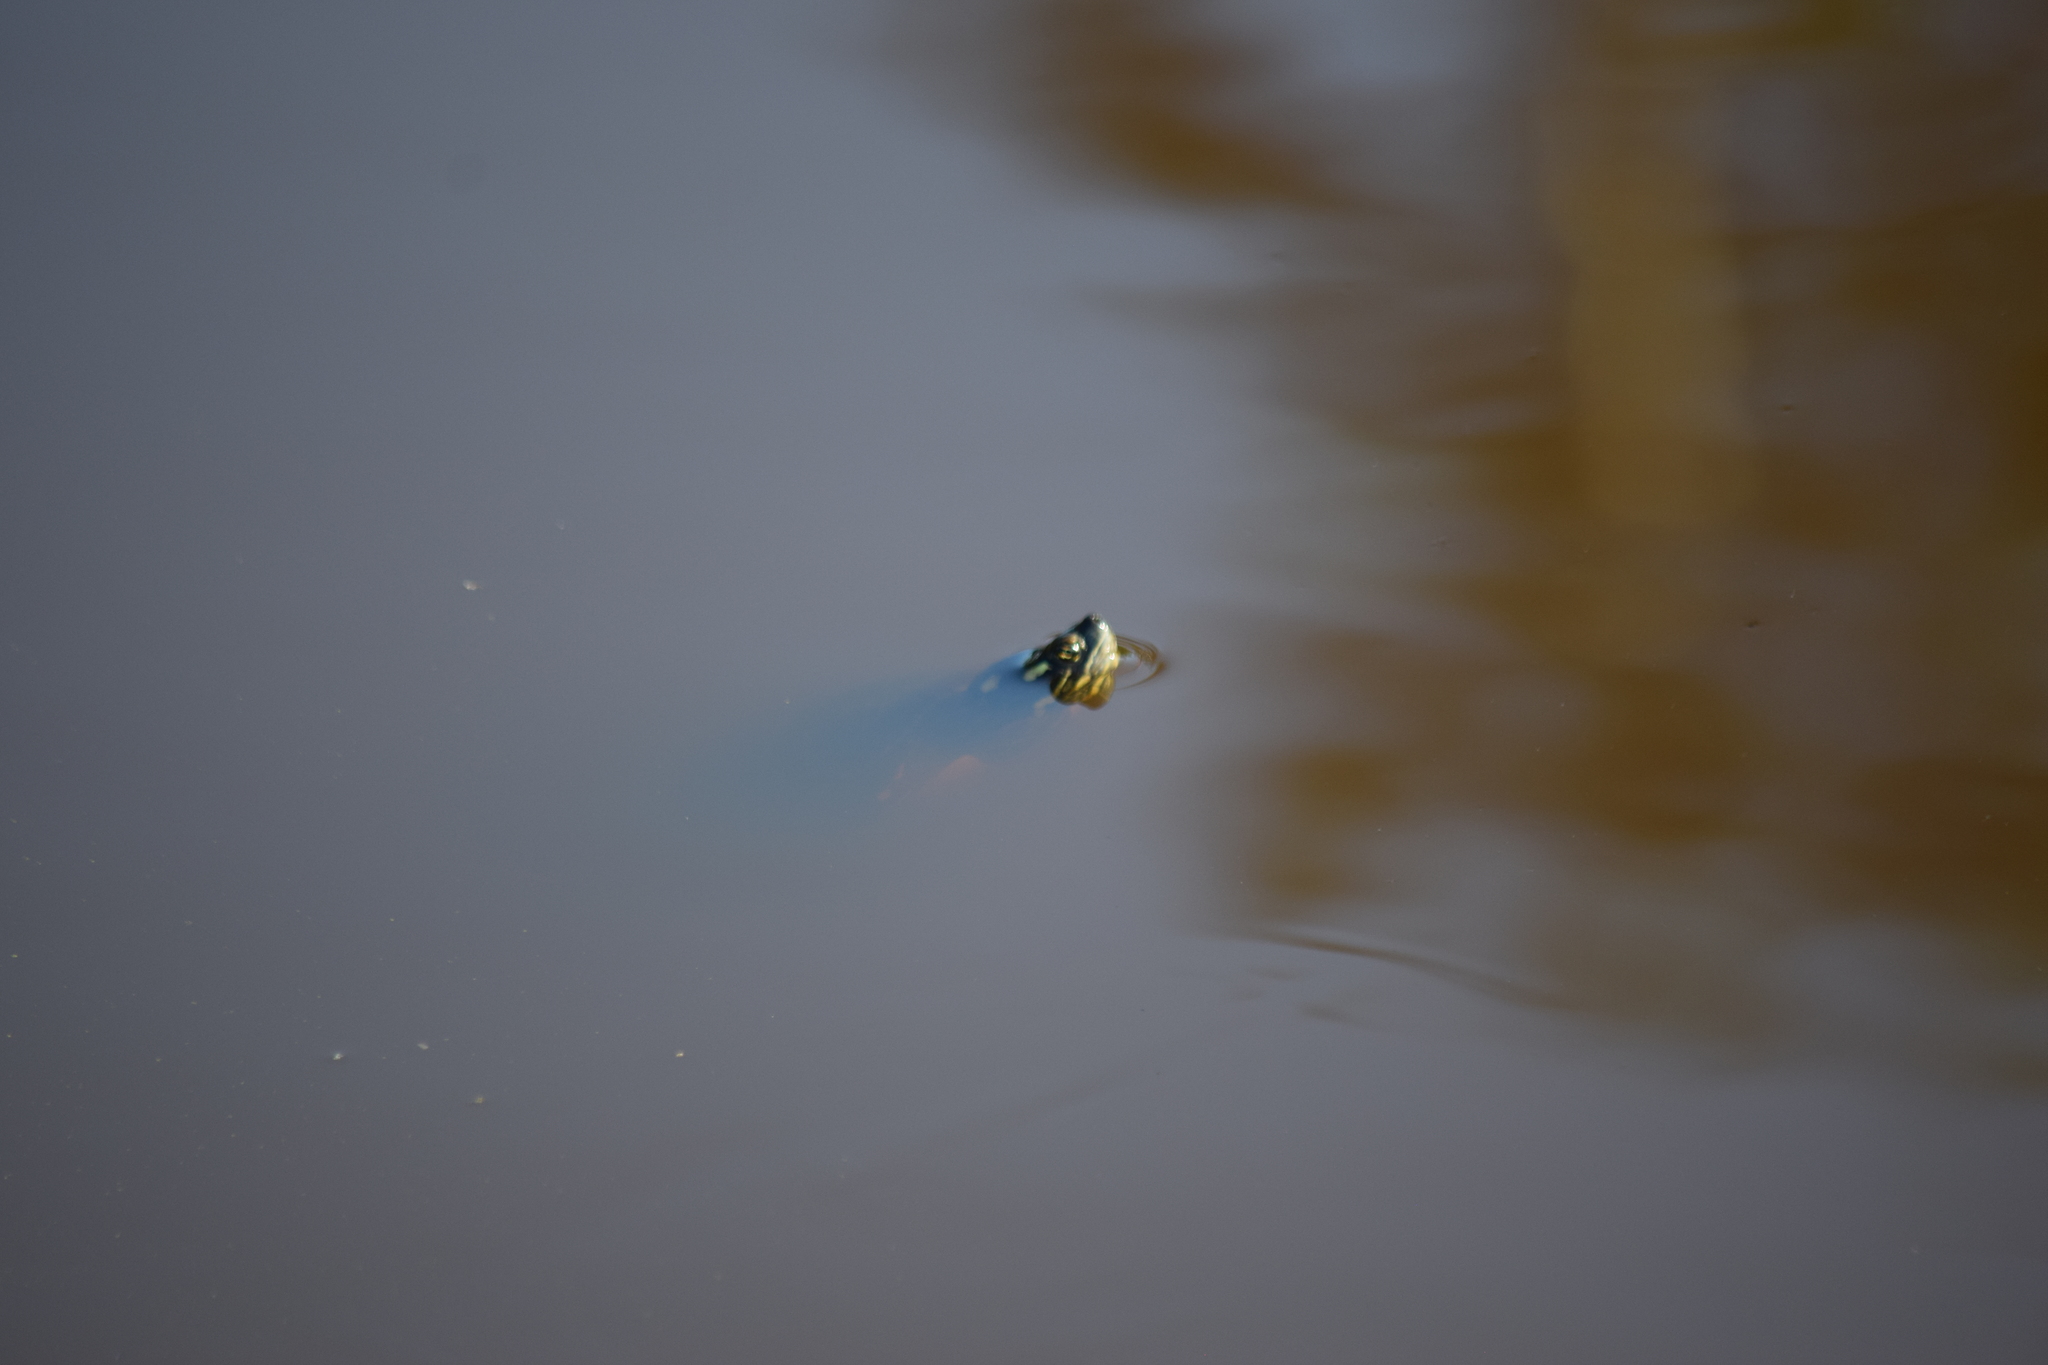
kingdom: Animalia
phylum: Chordata
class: Testudines
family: Emydidae
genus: Chrysemys
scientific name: Chrysemys picta
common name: Painted turtle
